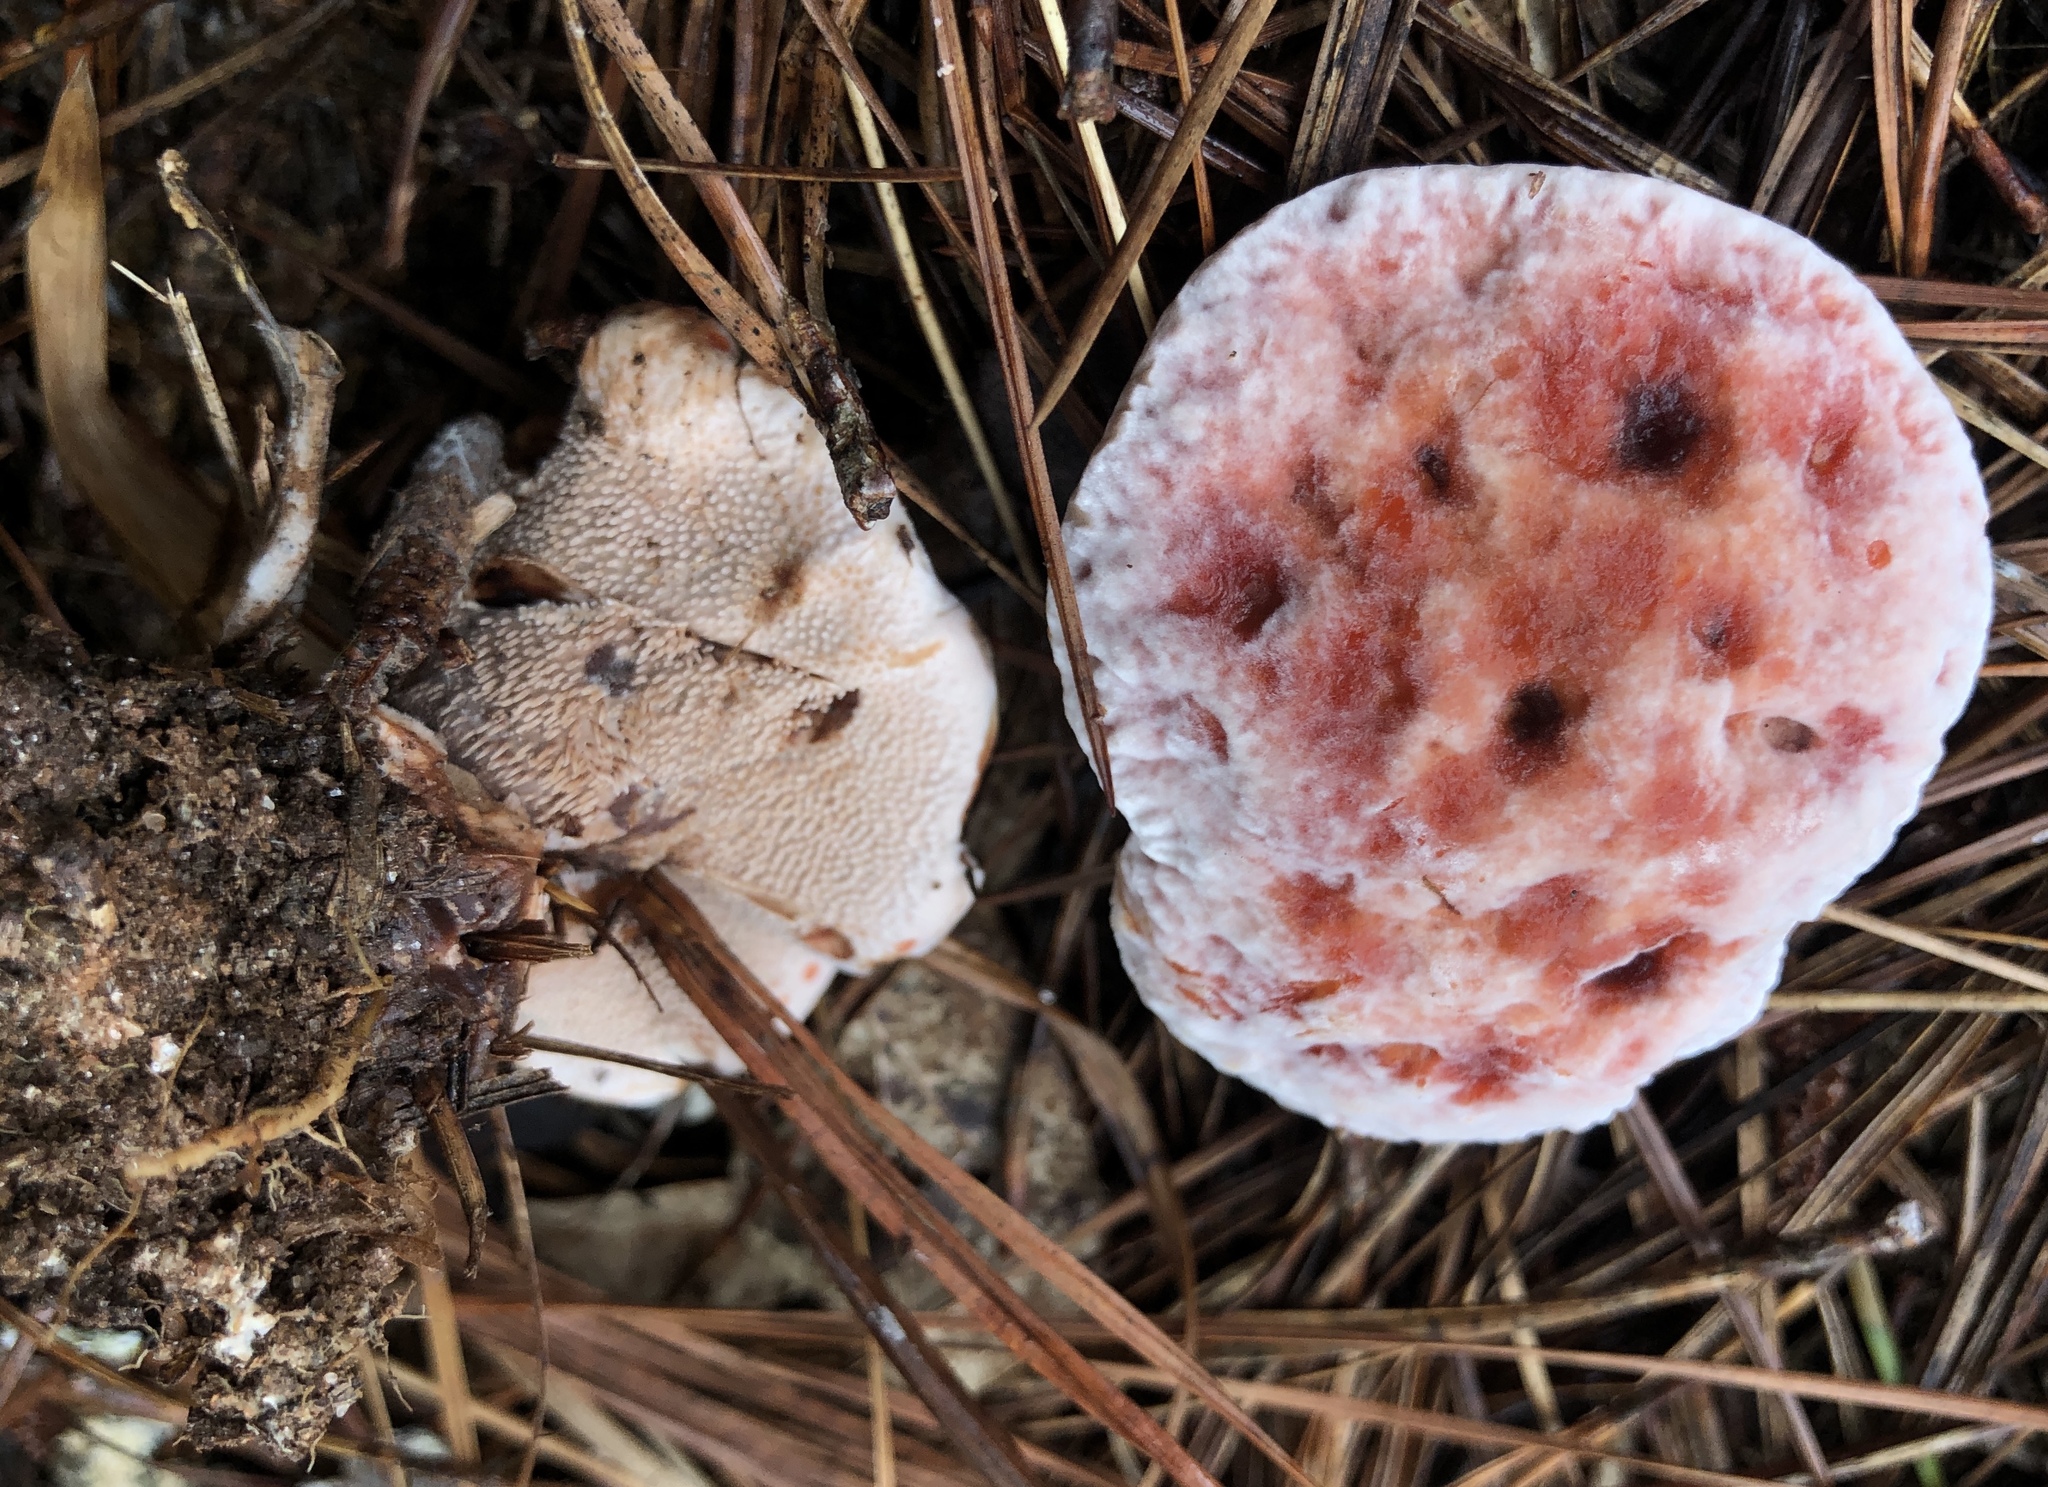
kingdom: Fungi
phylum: Basidiomycota
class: Agaricomycetes
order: Thelephorales
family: Bankeraceae
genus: Hydnellum
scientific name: Hydnellum peckii
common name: Devil's tooth
